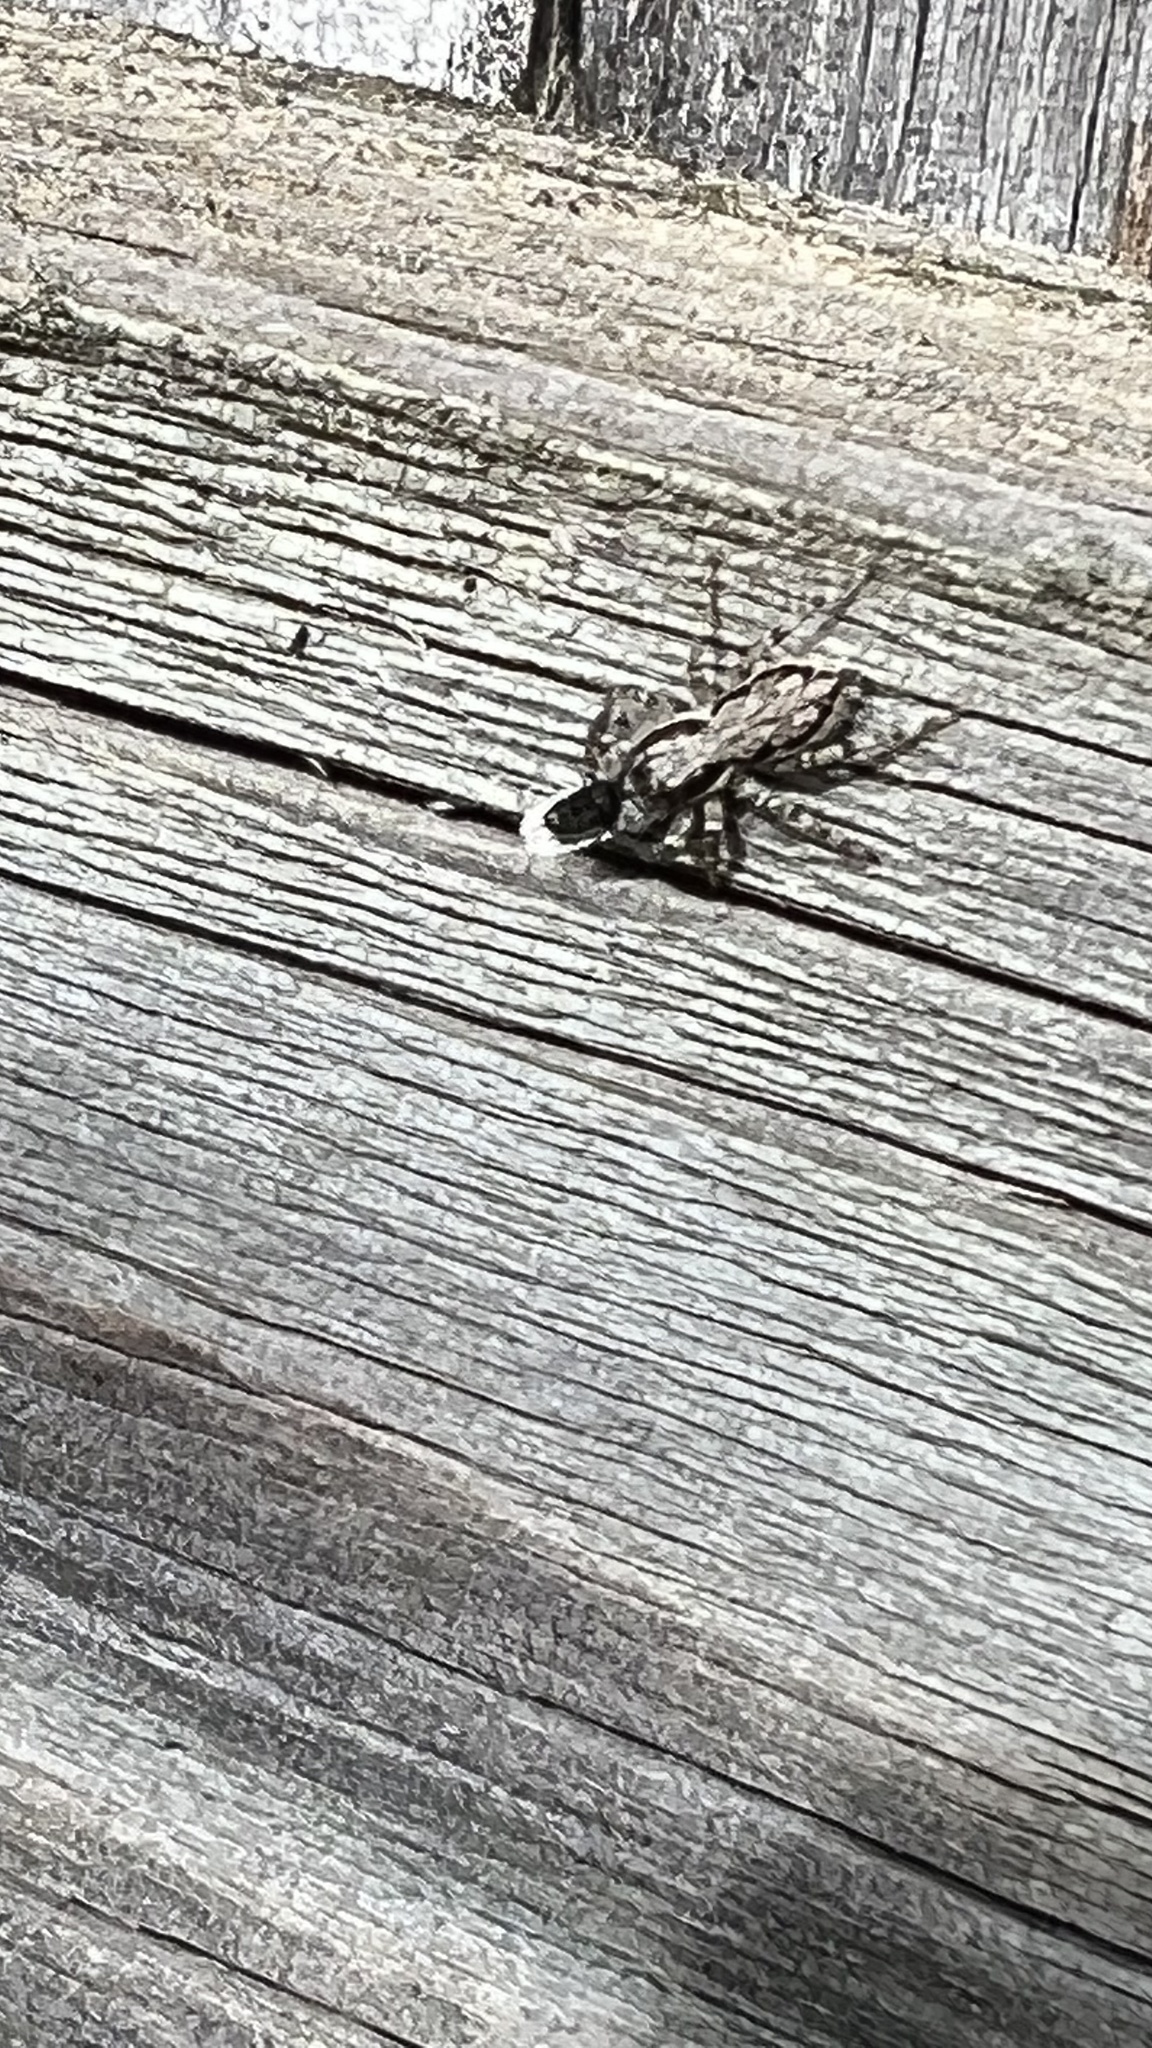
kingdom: Animalia
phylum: Arthropoda
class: Arachnida
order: Araneae
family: Salticidae
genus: Menemerus
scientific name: Menemerus bivittatus
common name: Gray wall jumper
